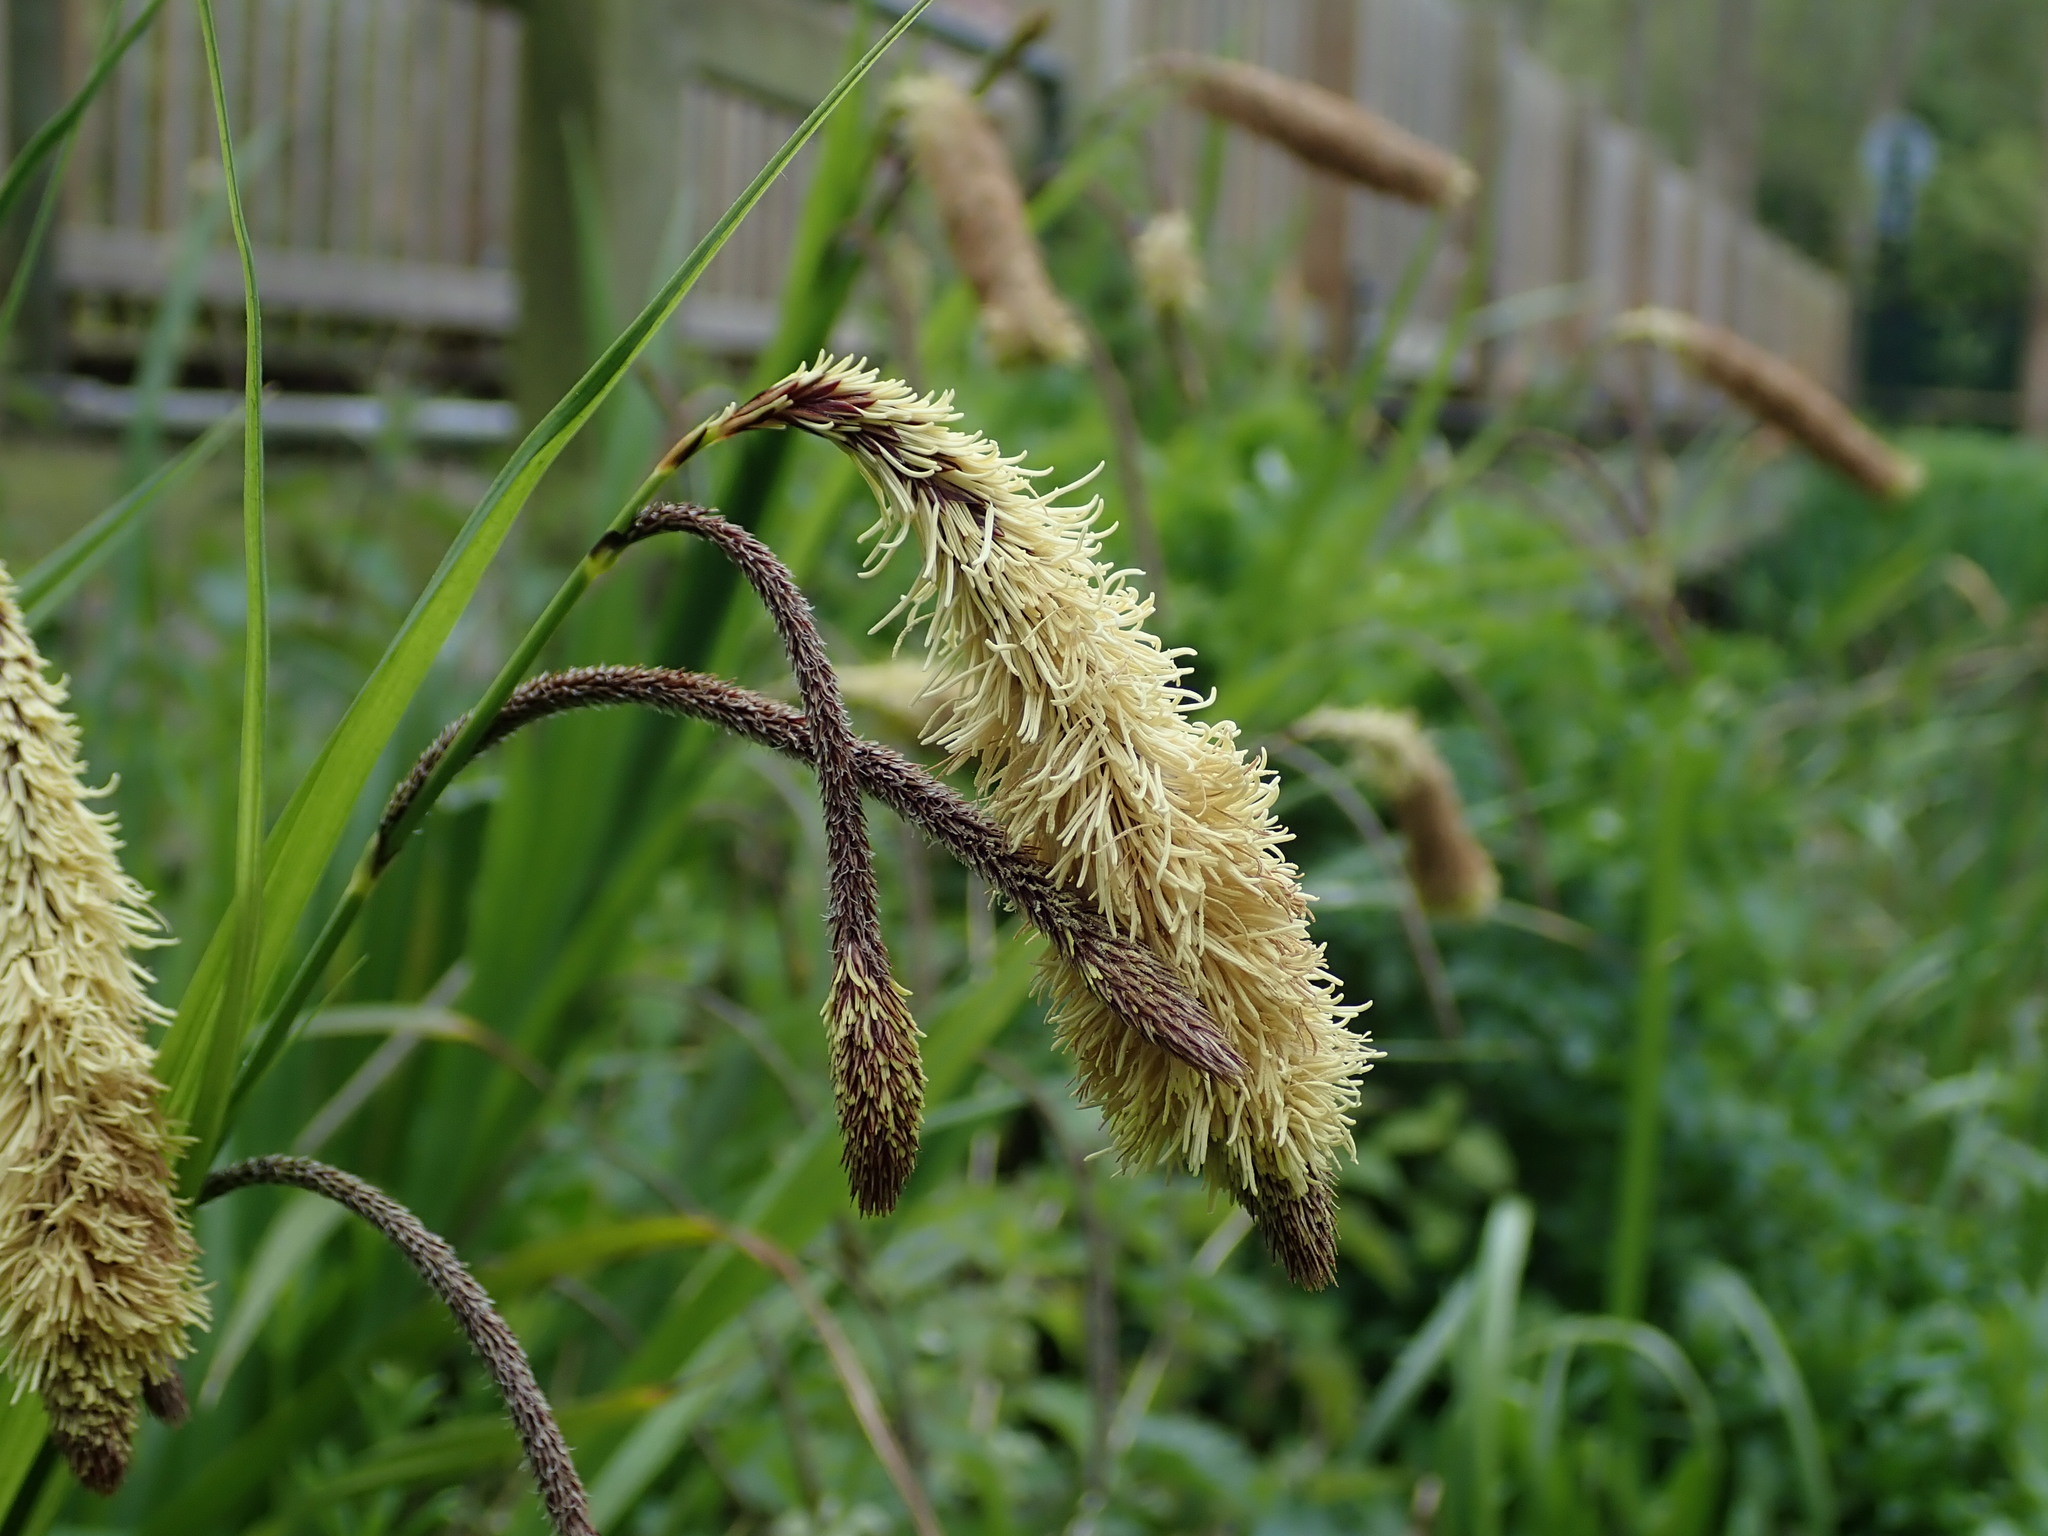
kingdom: Plantae
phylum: Tracheophyta
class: Liliopsida
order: Poales
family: Cyperaceae
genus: Carex
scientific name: Carex pendula
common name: Pendulous sedge
